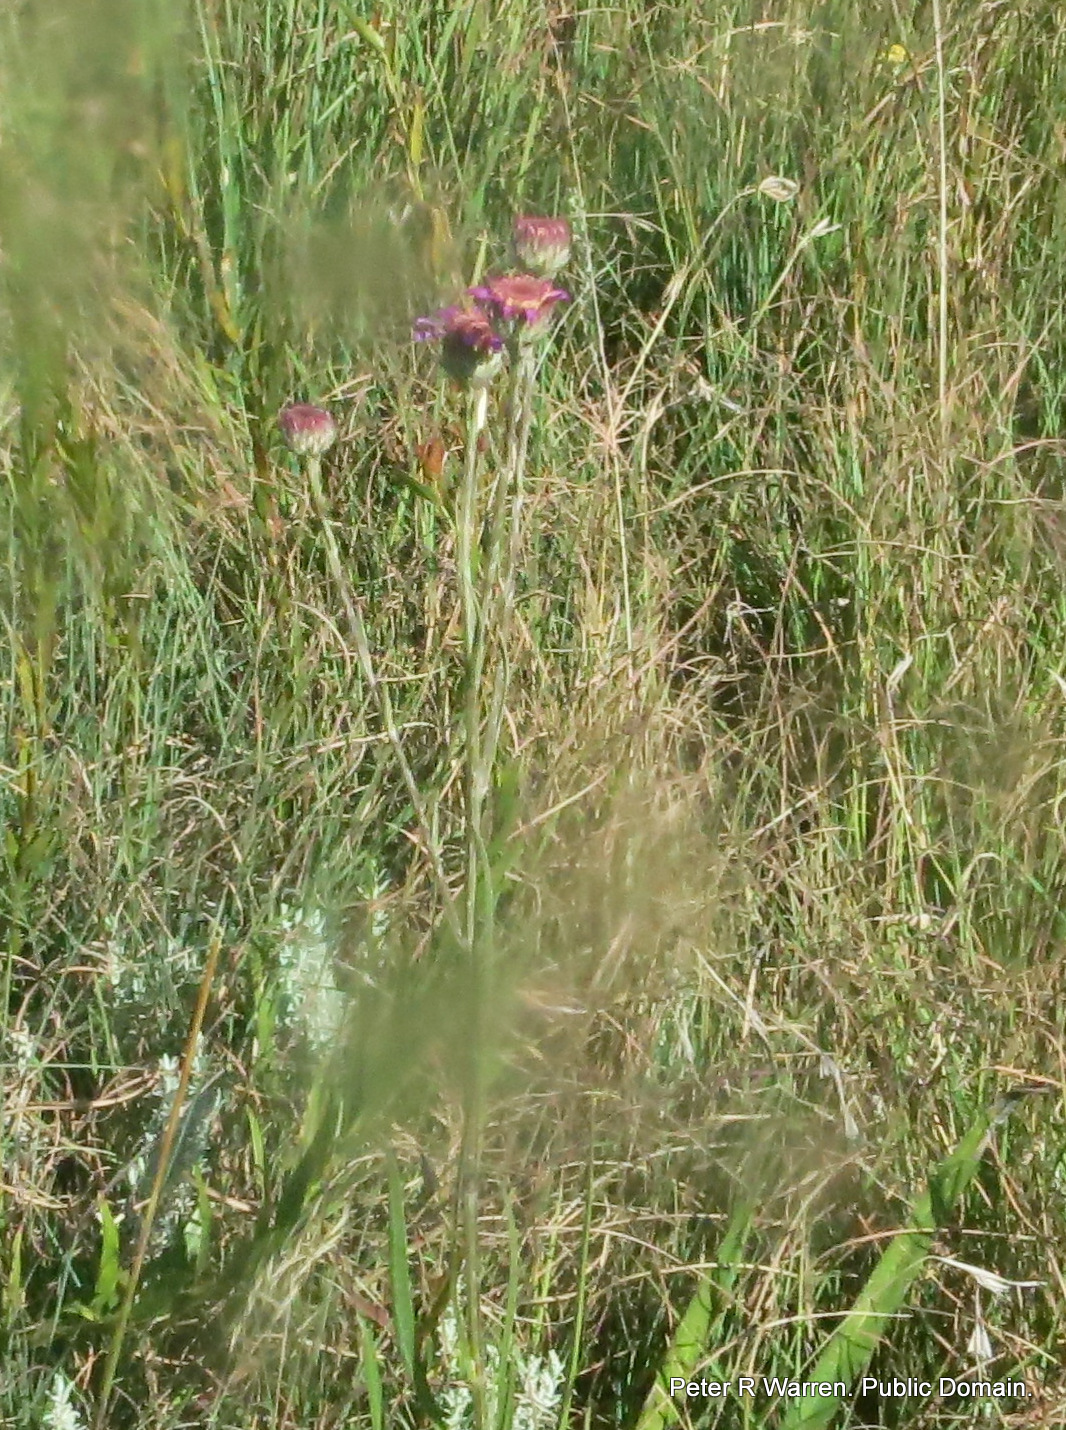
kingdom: Plantae
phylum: Tracheophyta
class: Magnoliopsida
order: Asterales
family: Asteraceae
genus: Senecio
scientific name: Senecio dregeanus
